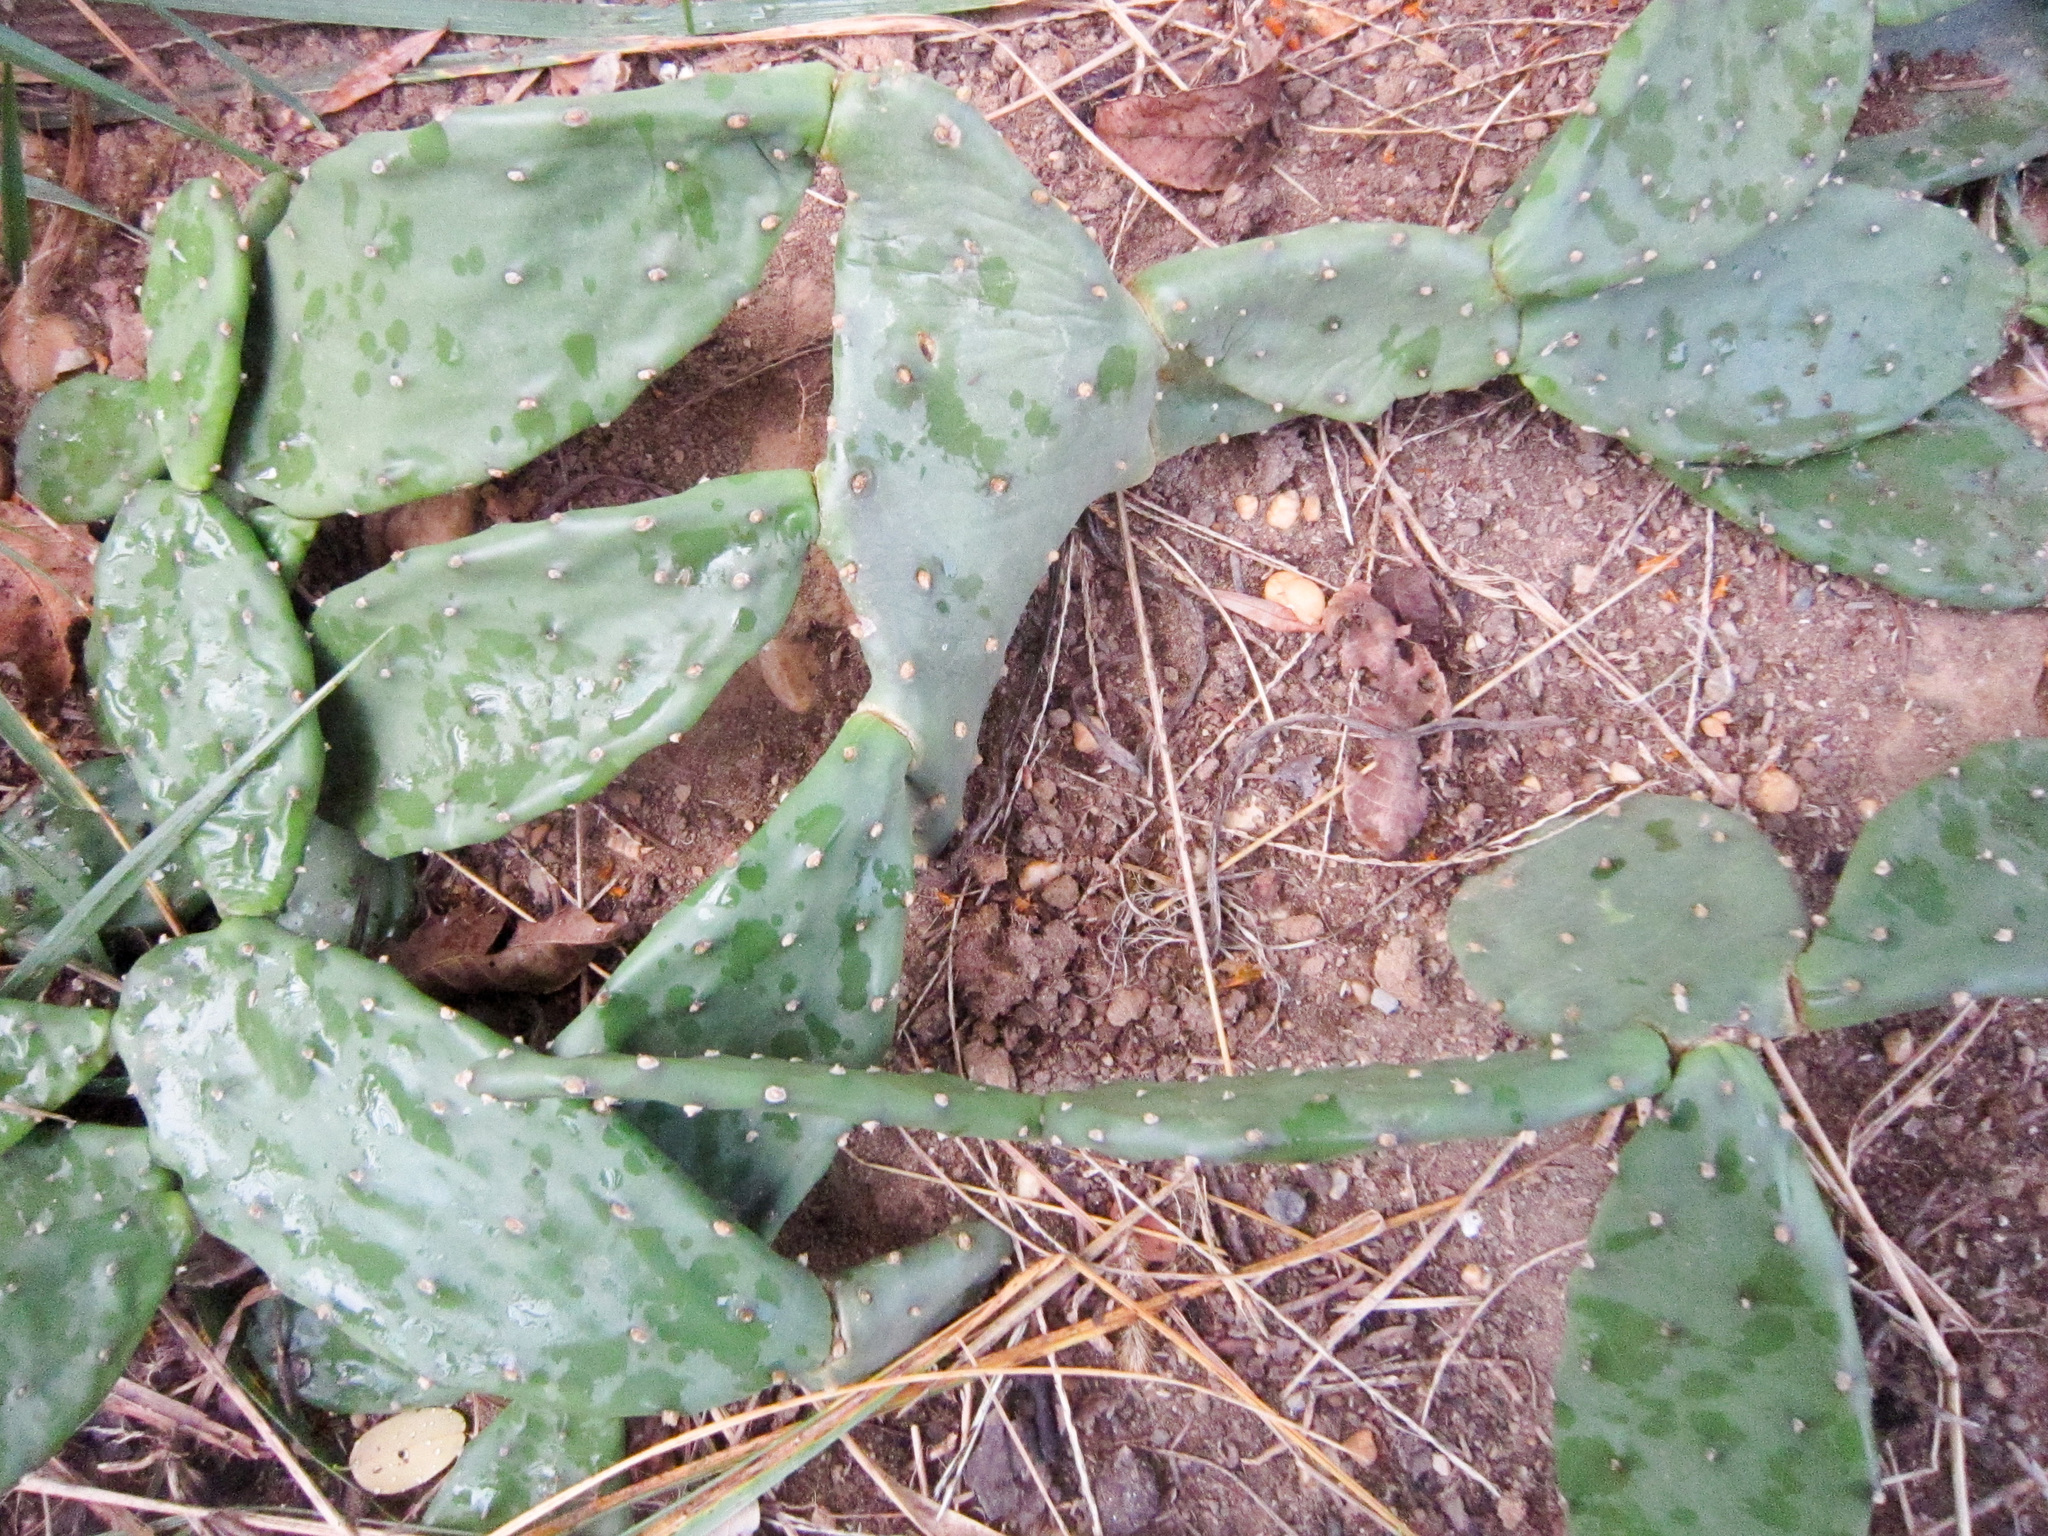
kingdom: Plantae
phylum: Tracheophyta
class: Magnoliopsida
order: Caryophyllales
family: Cactaceae
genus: Opuntia
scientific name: Opuntia humifusa
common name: Eastern prickly-pear
